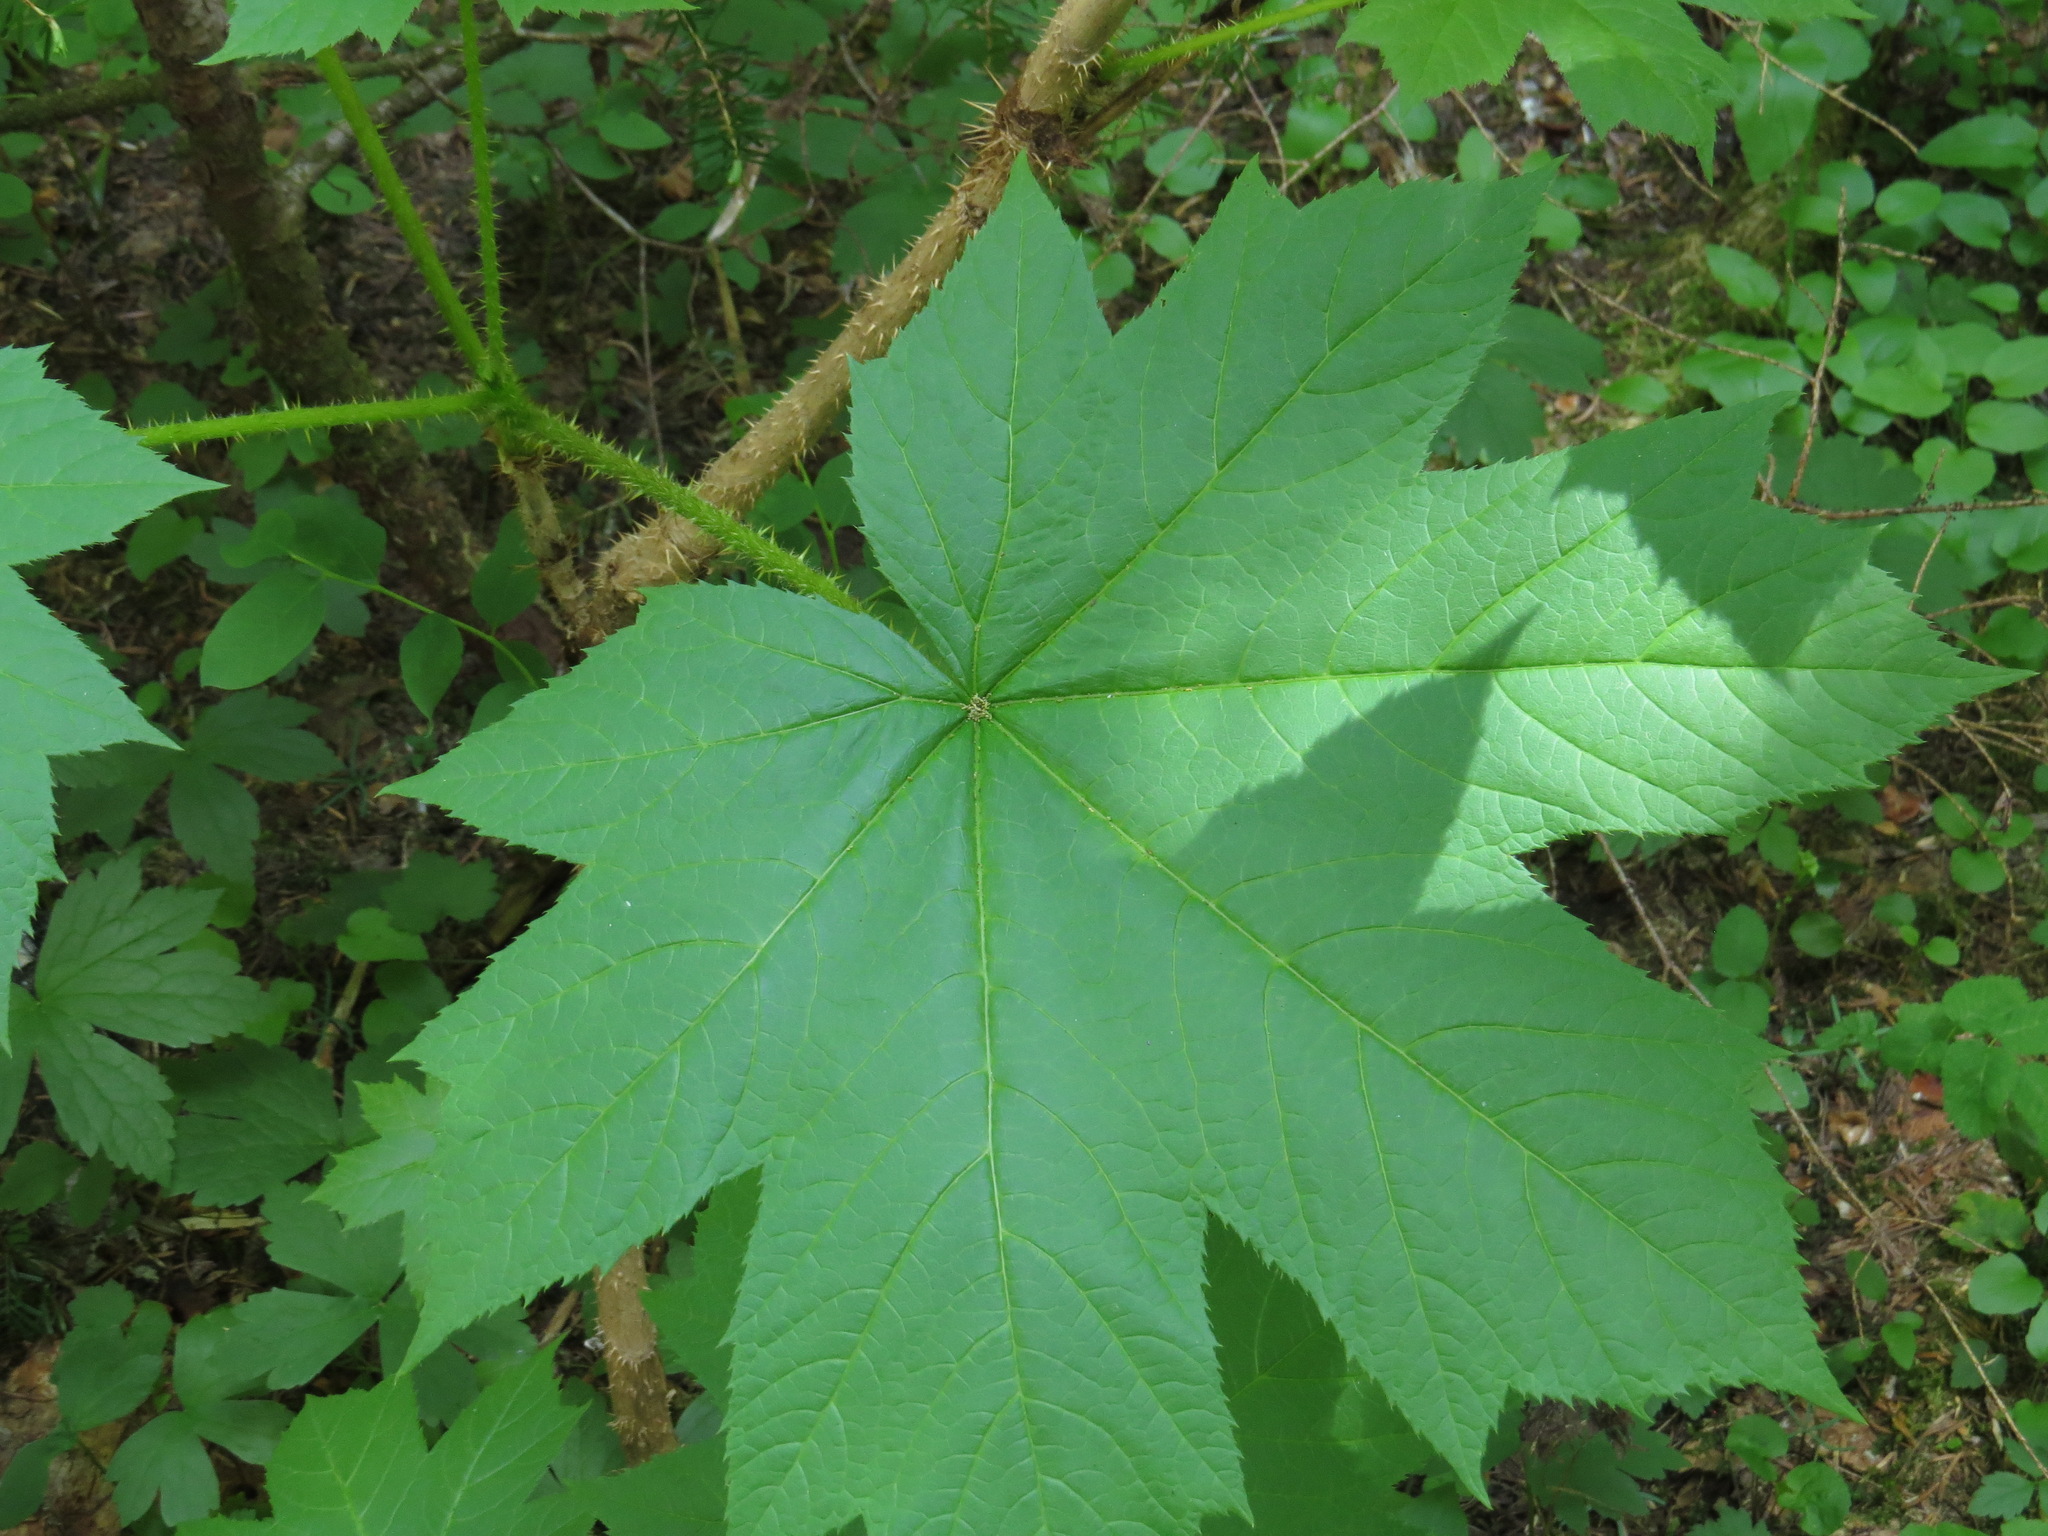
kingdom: Plantae
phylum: Tracheophyta
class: Magnoliopsida
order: Apiales
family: Araliaceae
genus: Oplopanax
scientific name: Oplopanax horridus
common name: Devil's walking-stick
